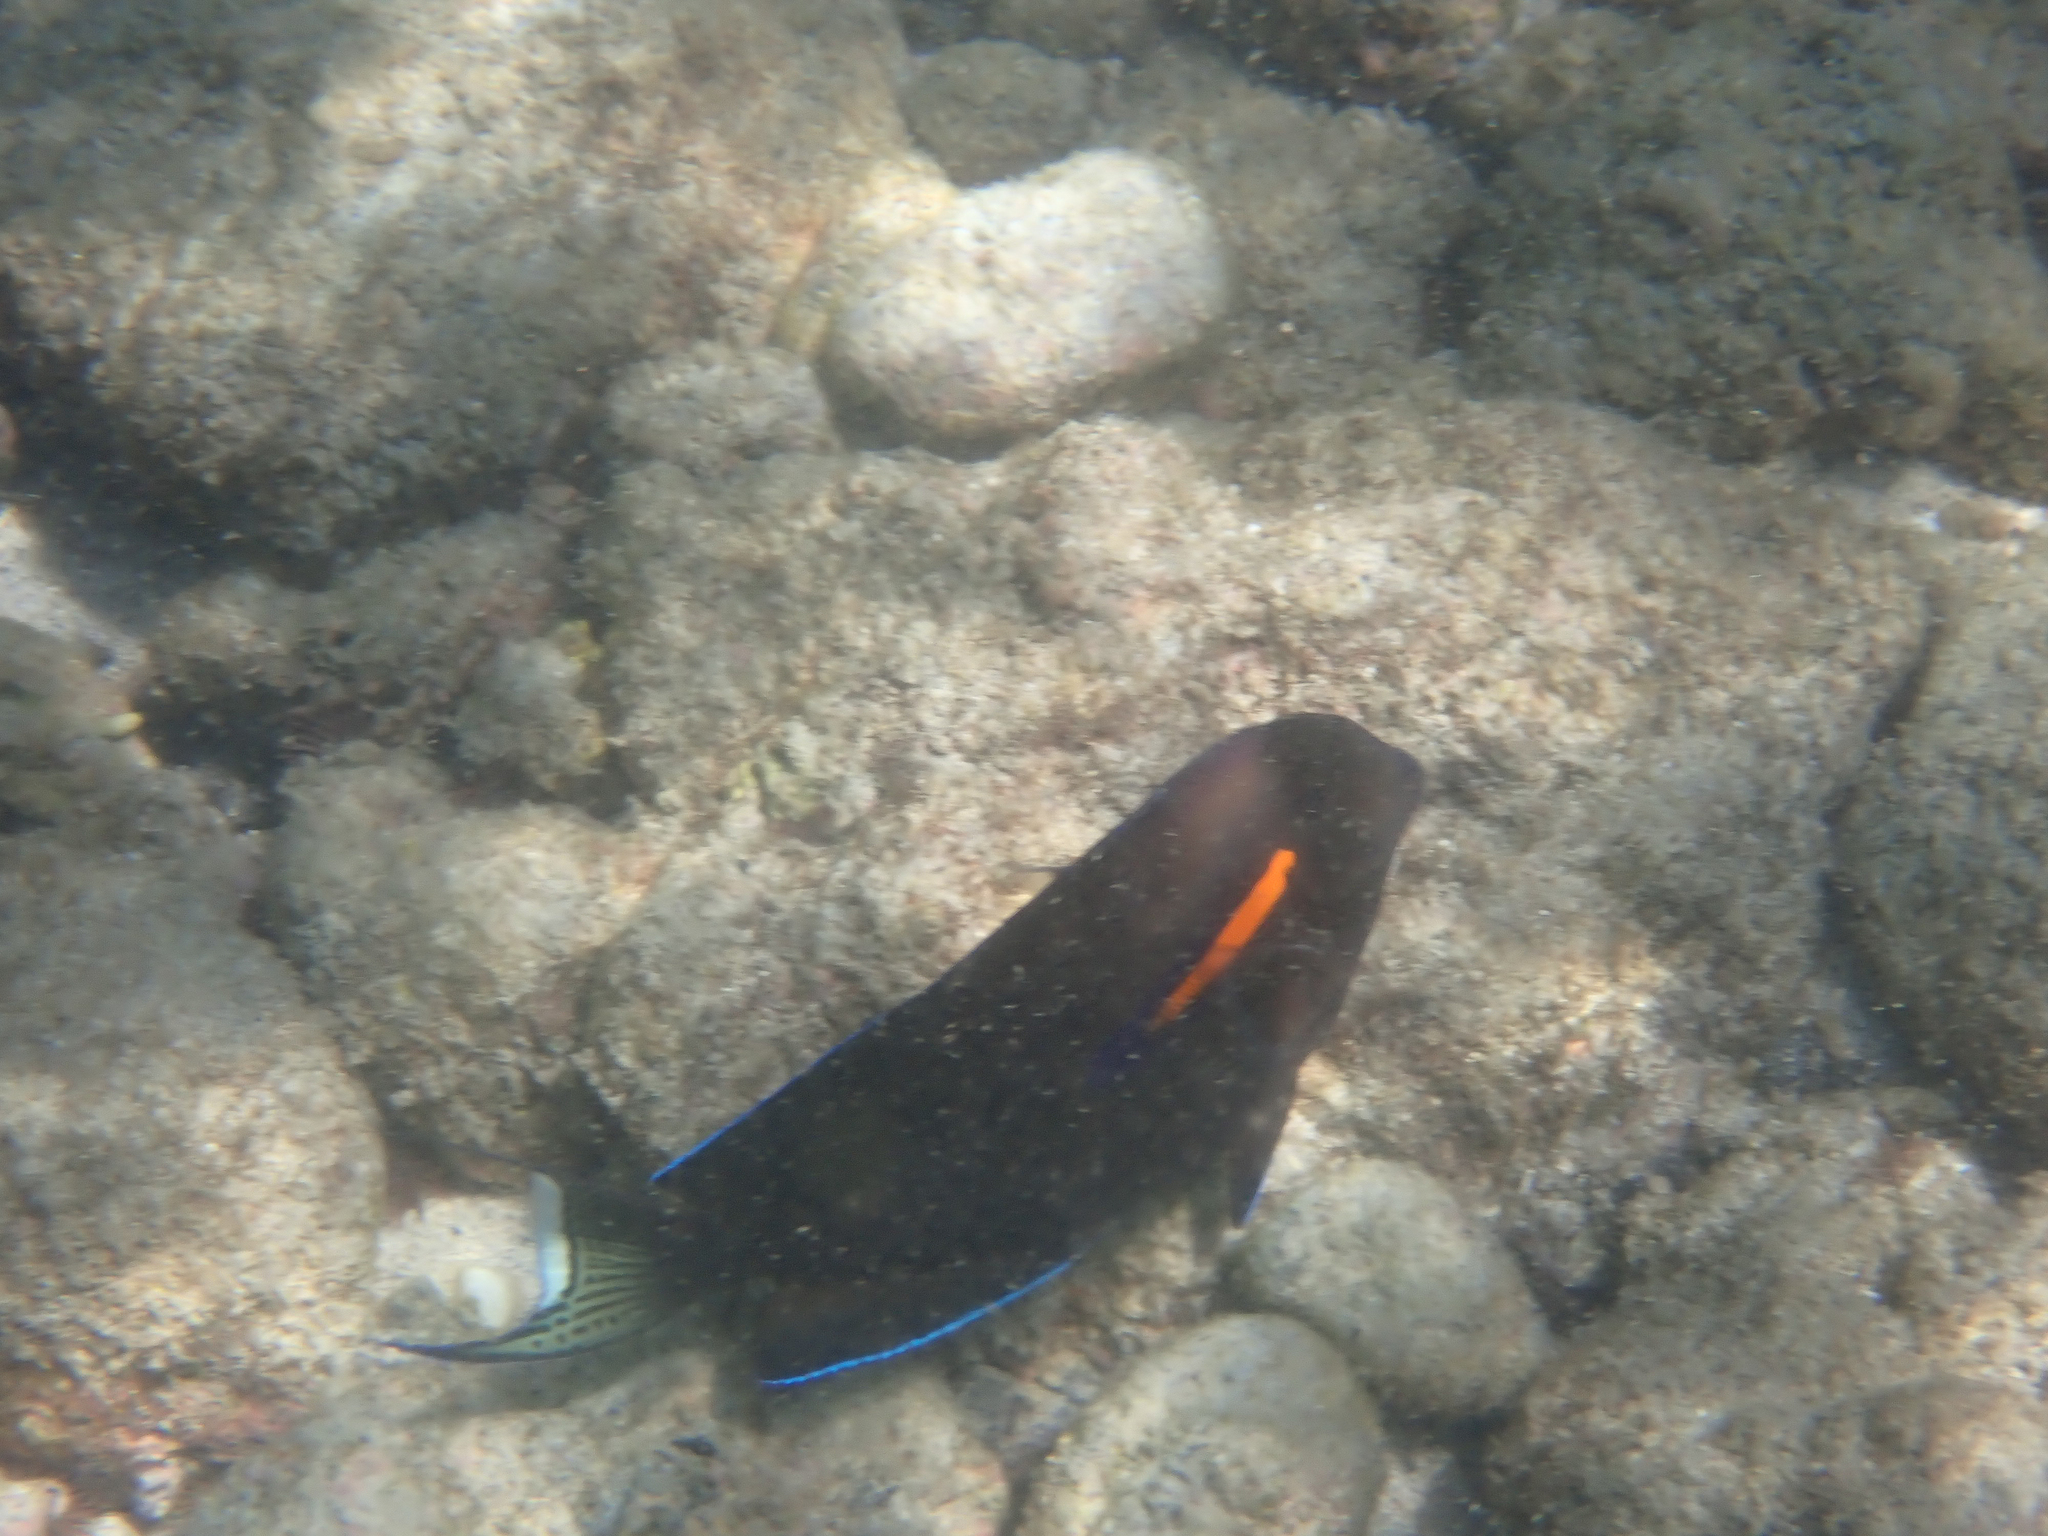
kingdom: Animalia
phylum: Chordata
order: Perciformes
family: Acanthuridae
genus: Acanthurus
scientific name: Acanthurus olivaceus
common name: Gendarme fish
